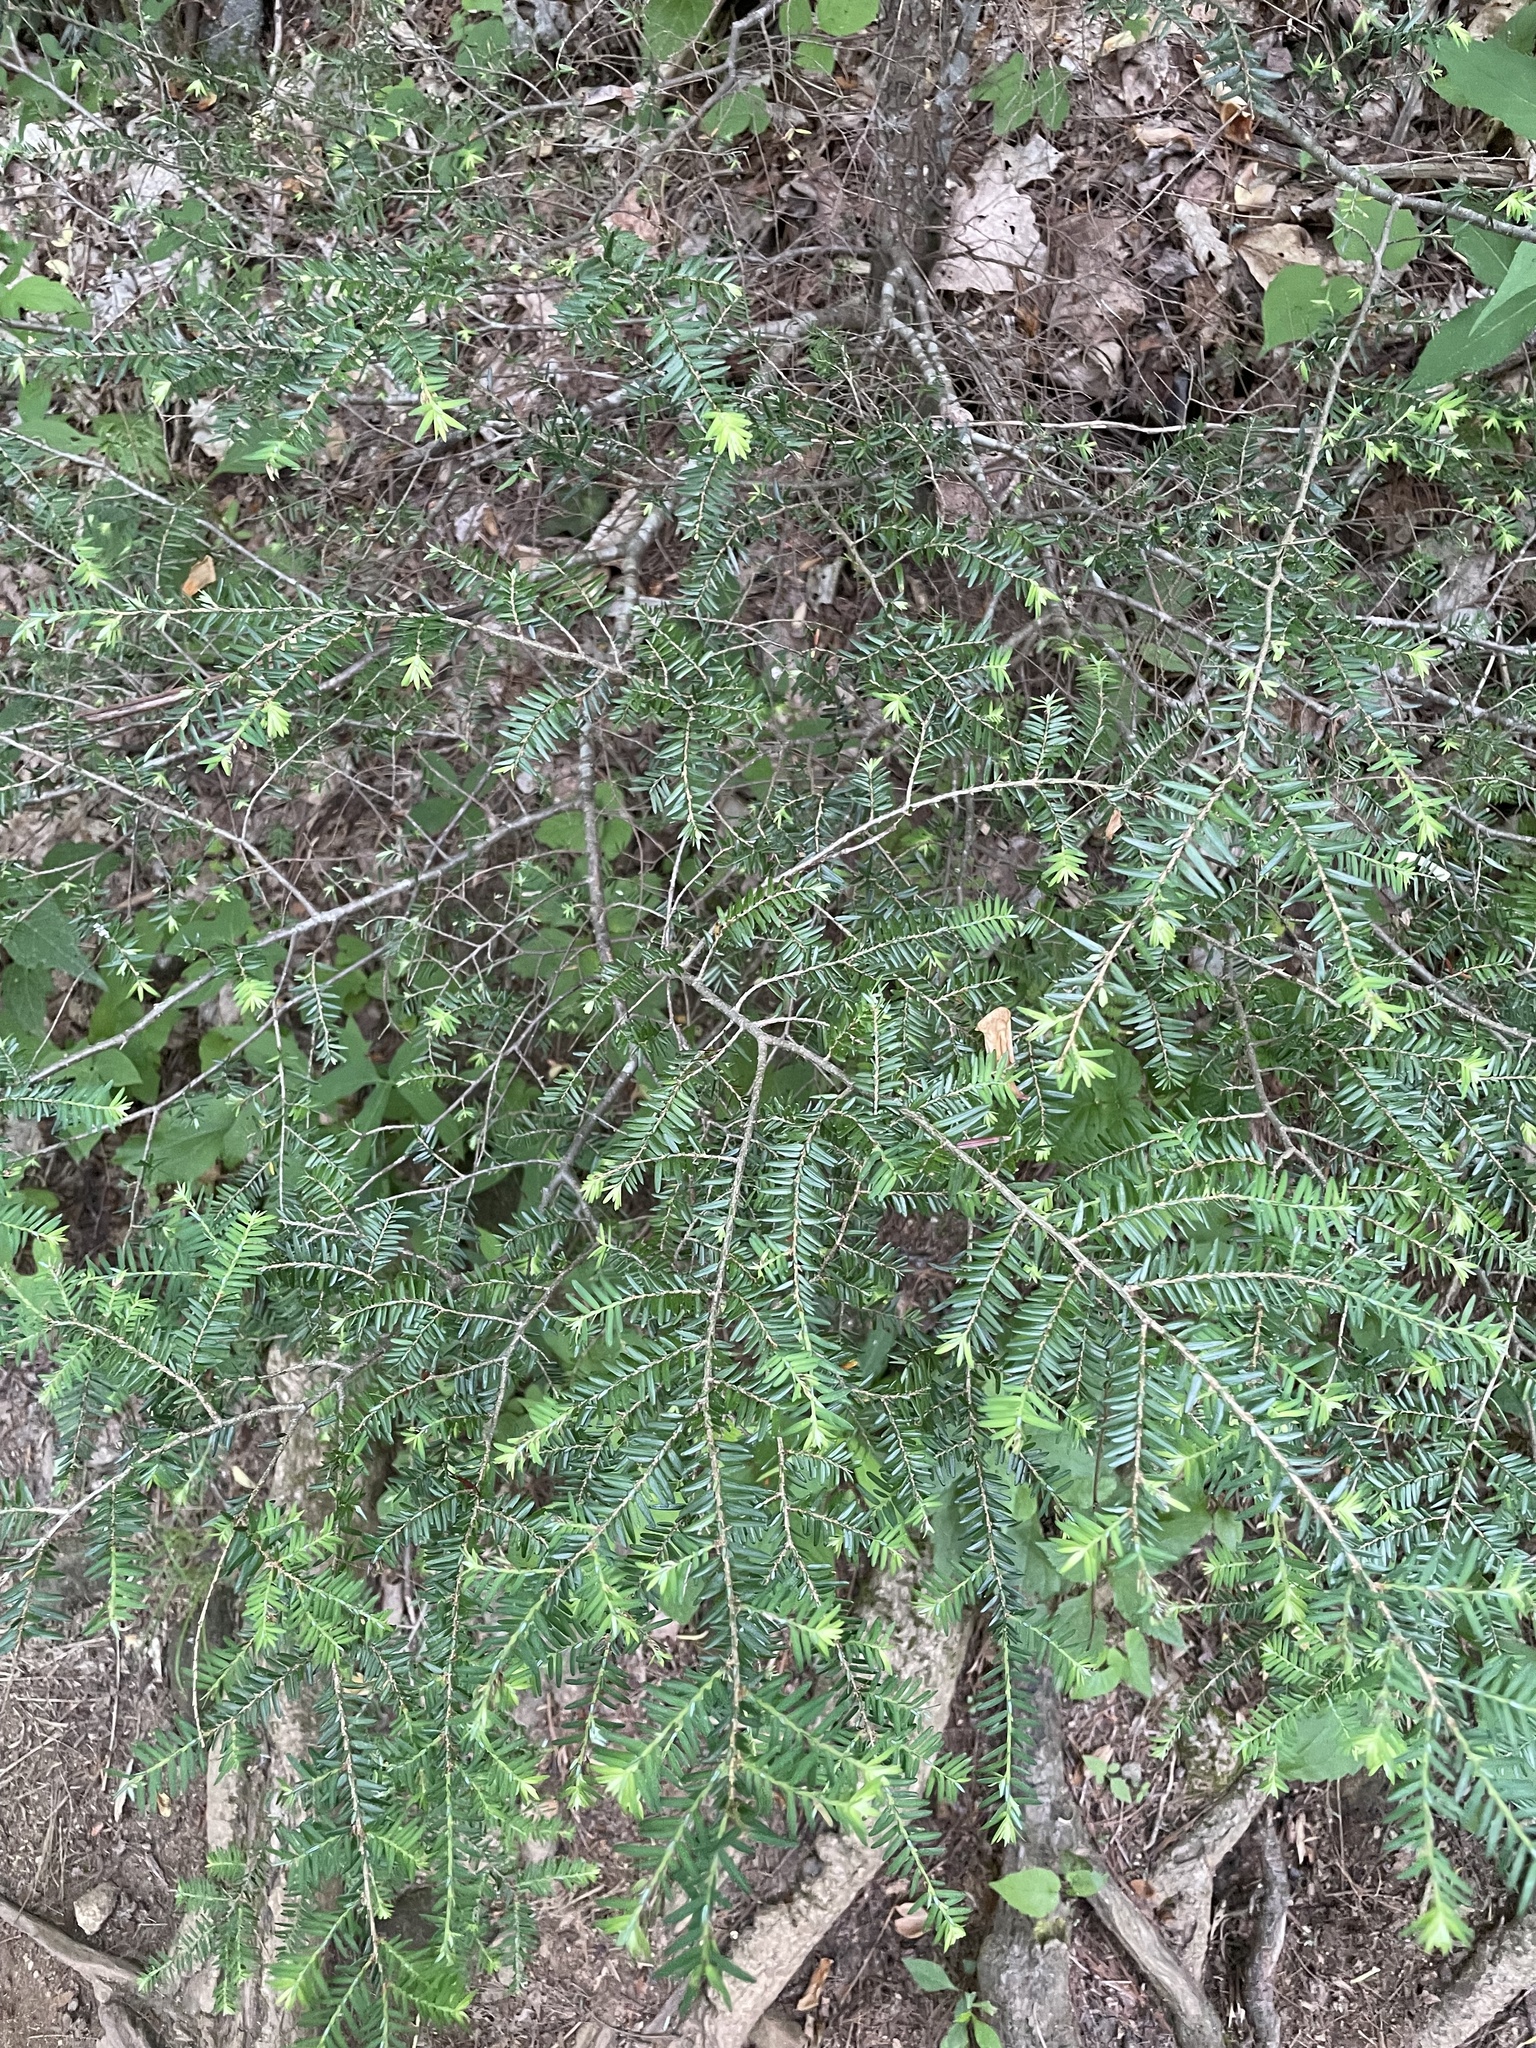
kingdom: Plantae
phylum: Tracheophyta
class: Pinopsida
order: Pinales
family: Pinaceae
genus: Tsuga
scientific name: Tsuga canadensis
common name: Eastern hemlock
